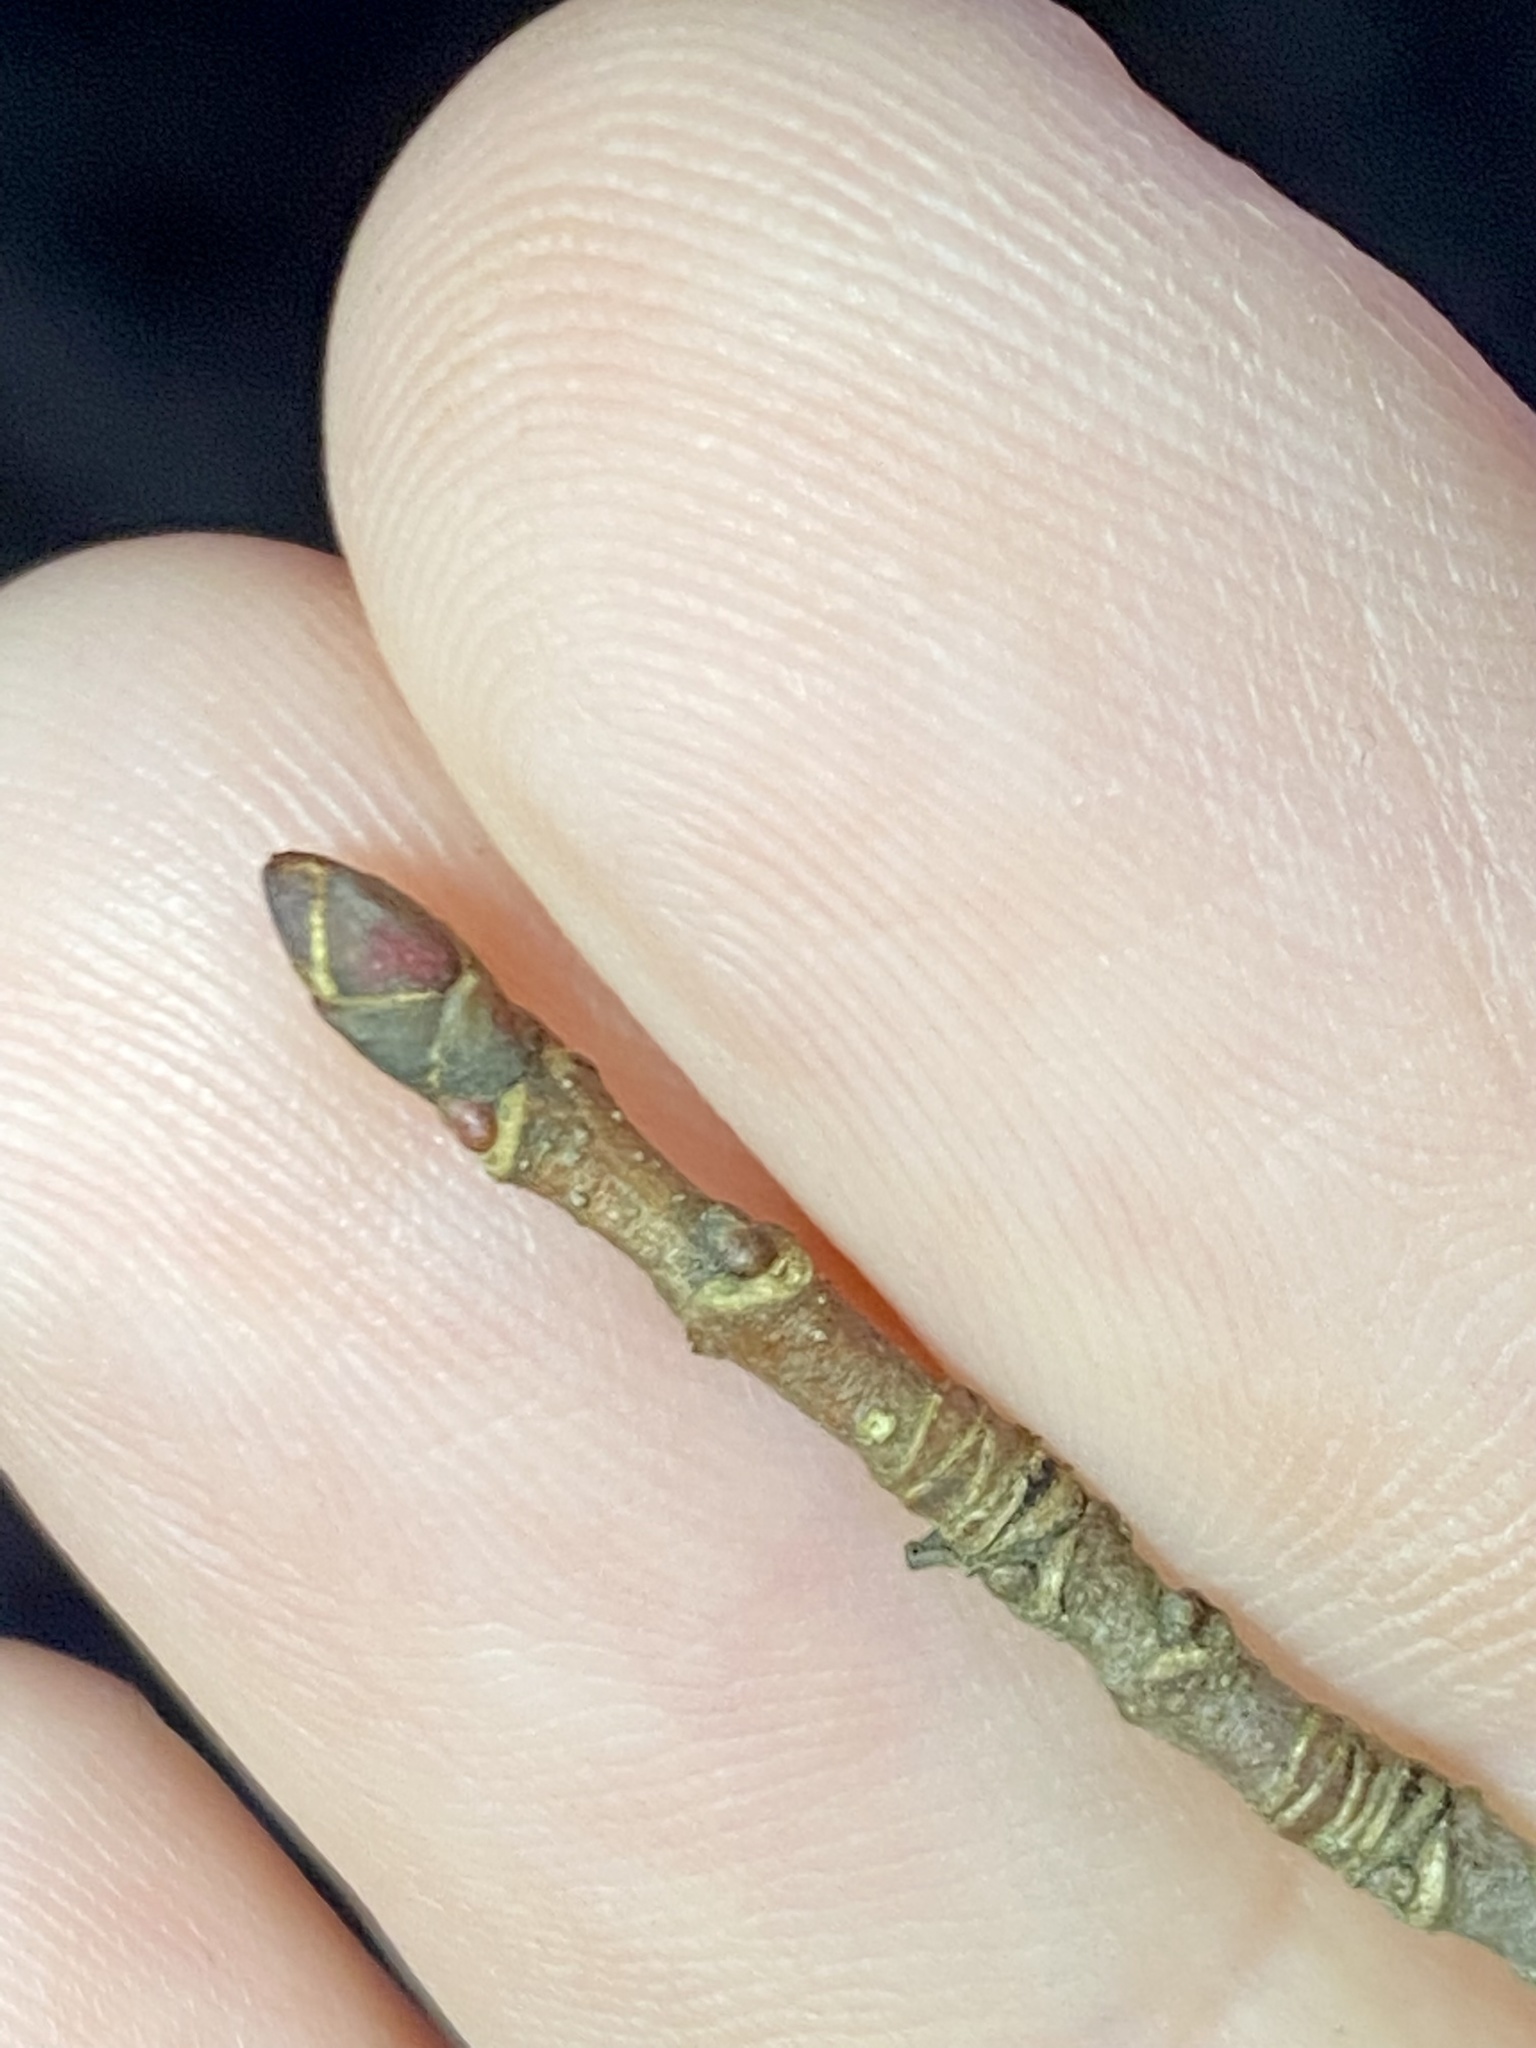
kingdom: Plantae
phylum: Tracheophyta
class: Magnoliopsida
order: Sapindales
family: Sapindaceae
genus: Acer
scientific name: Acer rubrum
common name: Red maple
